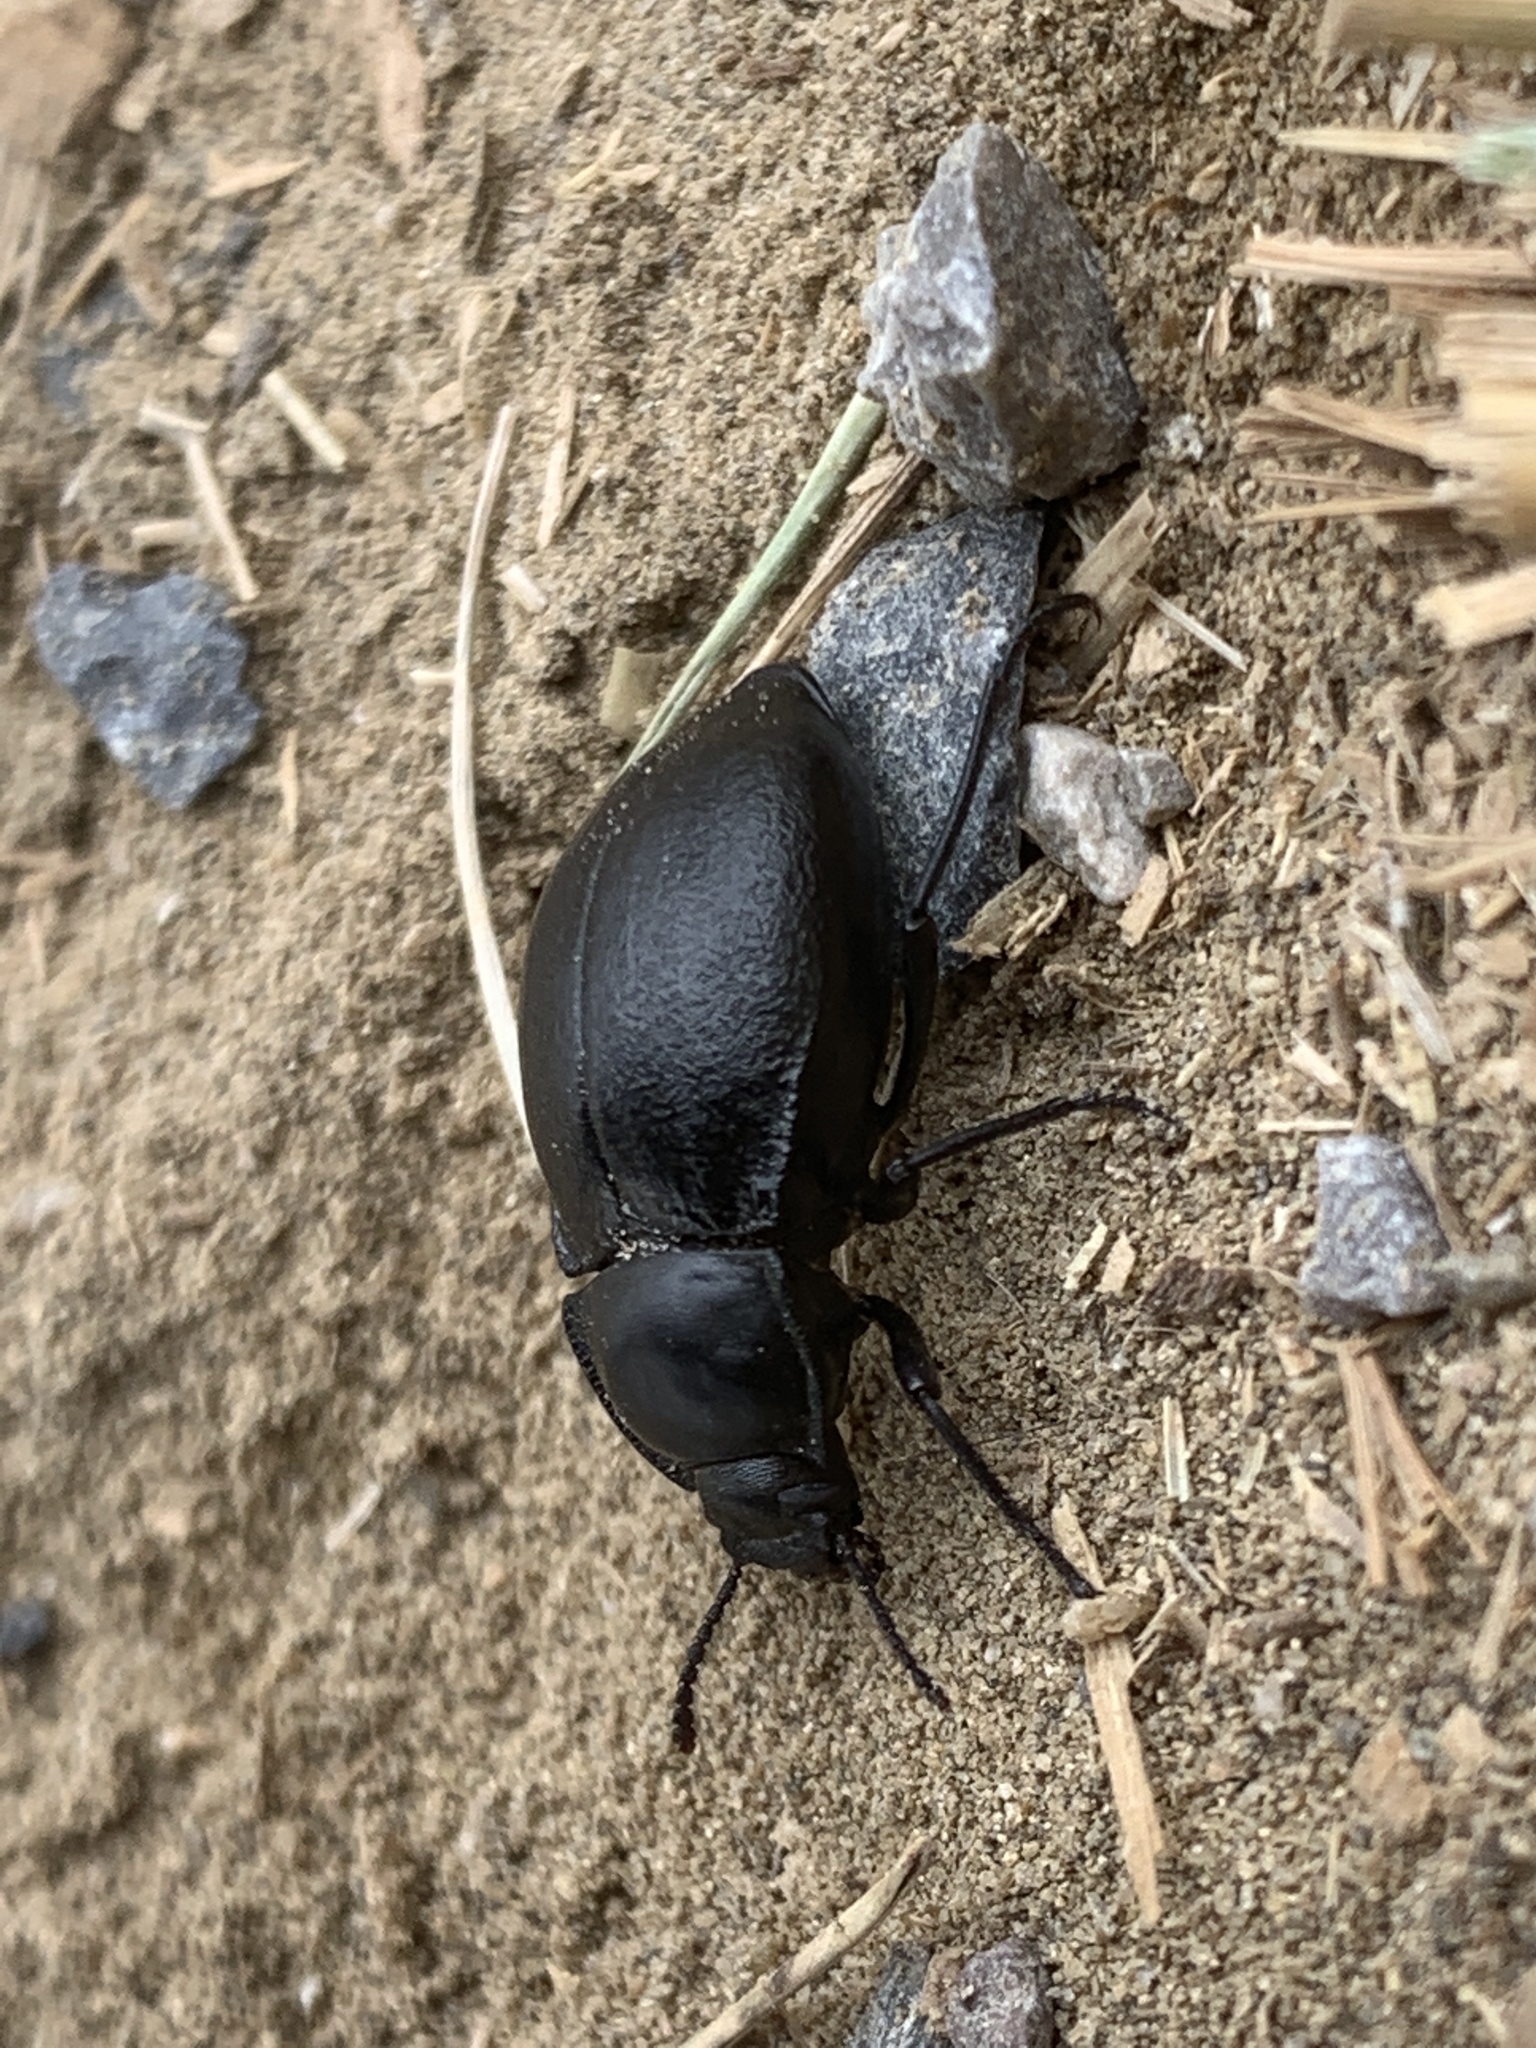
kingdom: Animalia
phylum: Arthropoda
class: Insecta
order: Coleoptera
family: Tenebrionidae
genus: Stenomorpha
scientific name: Stenomorpha polita
